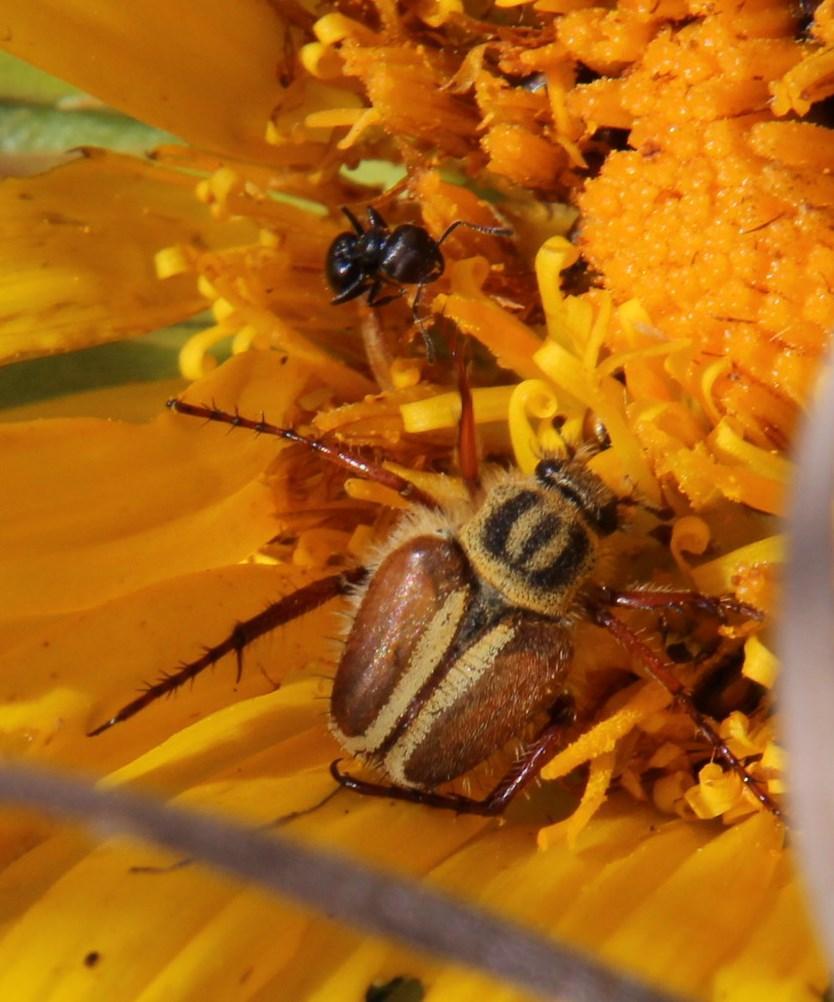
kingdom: Animalia
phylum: Arthropoda
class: Insecta
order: Coleoptera
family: Scarabaeidae
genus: Lepithrix
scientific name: Lepithrix longitarsis
